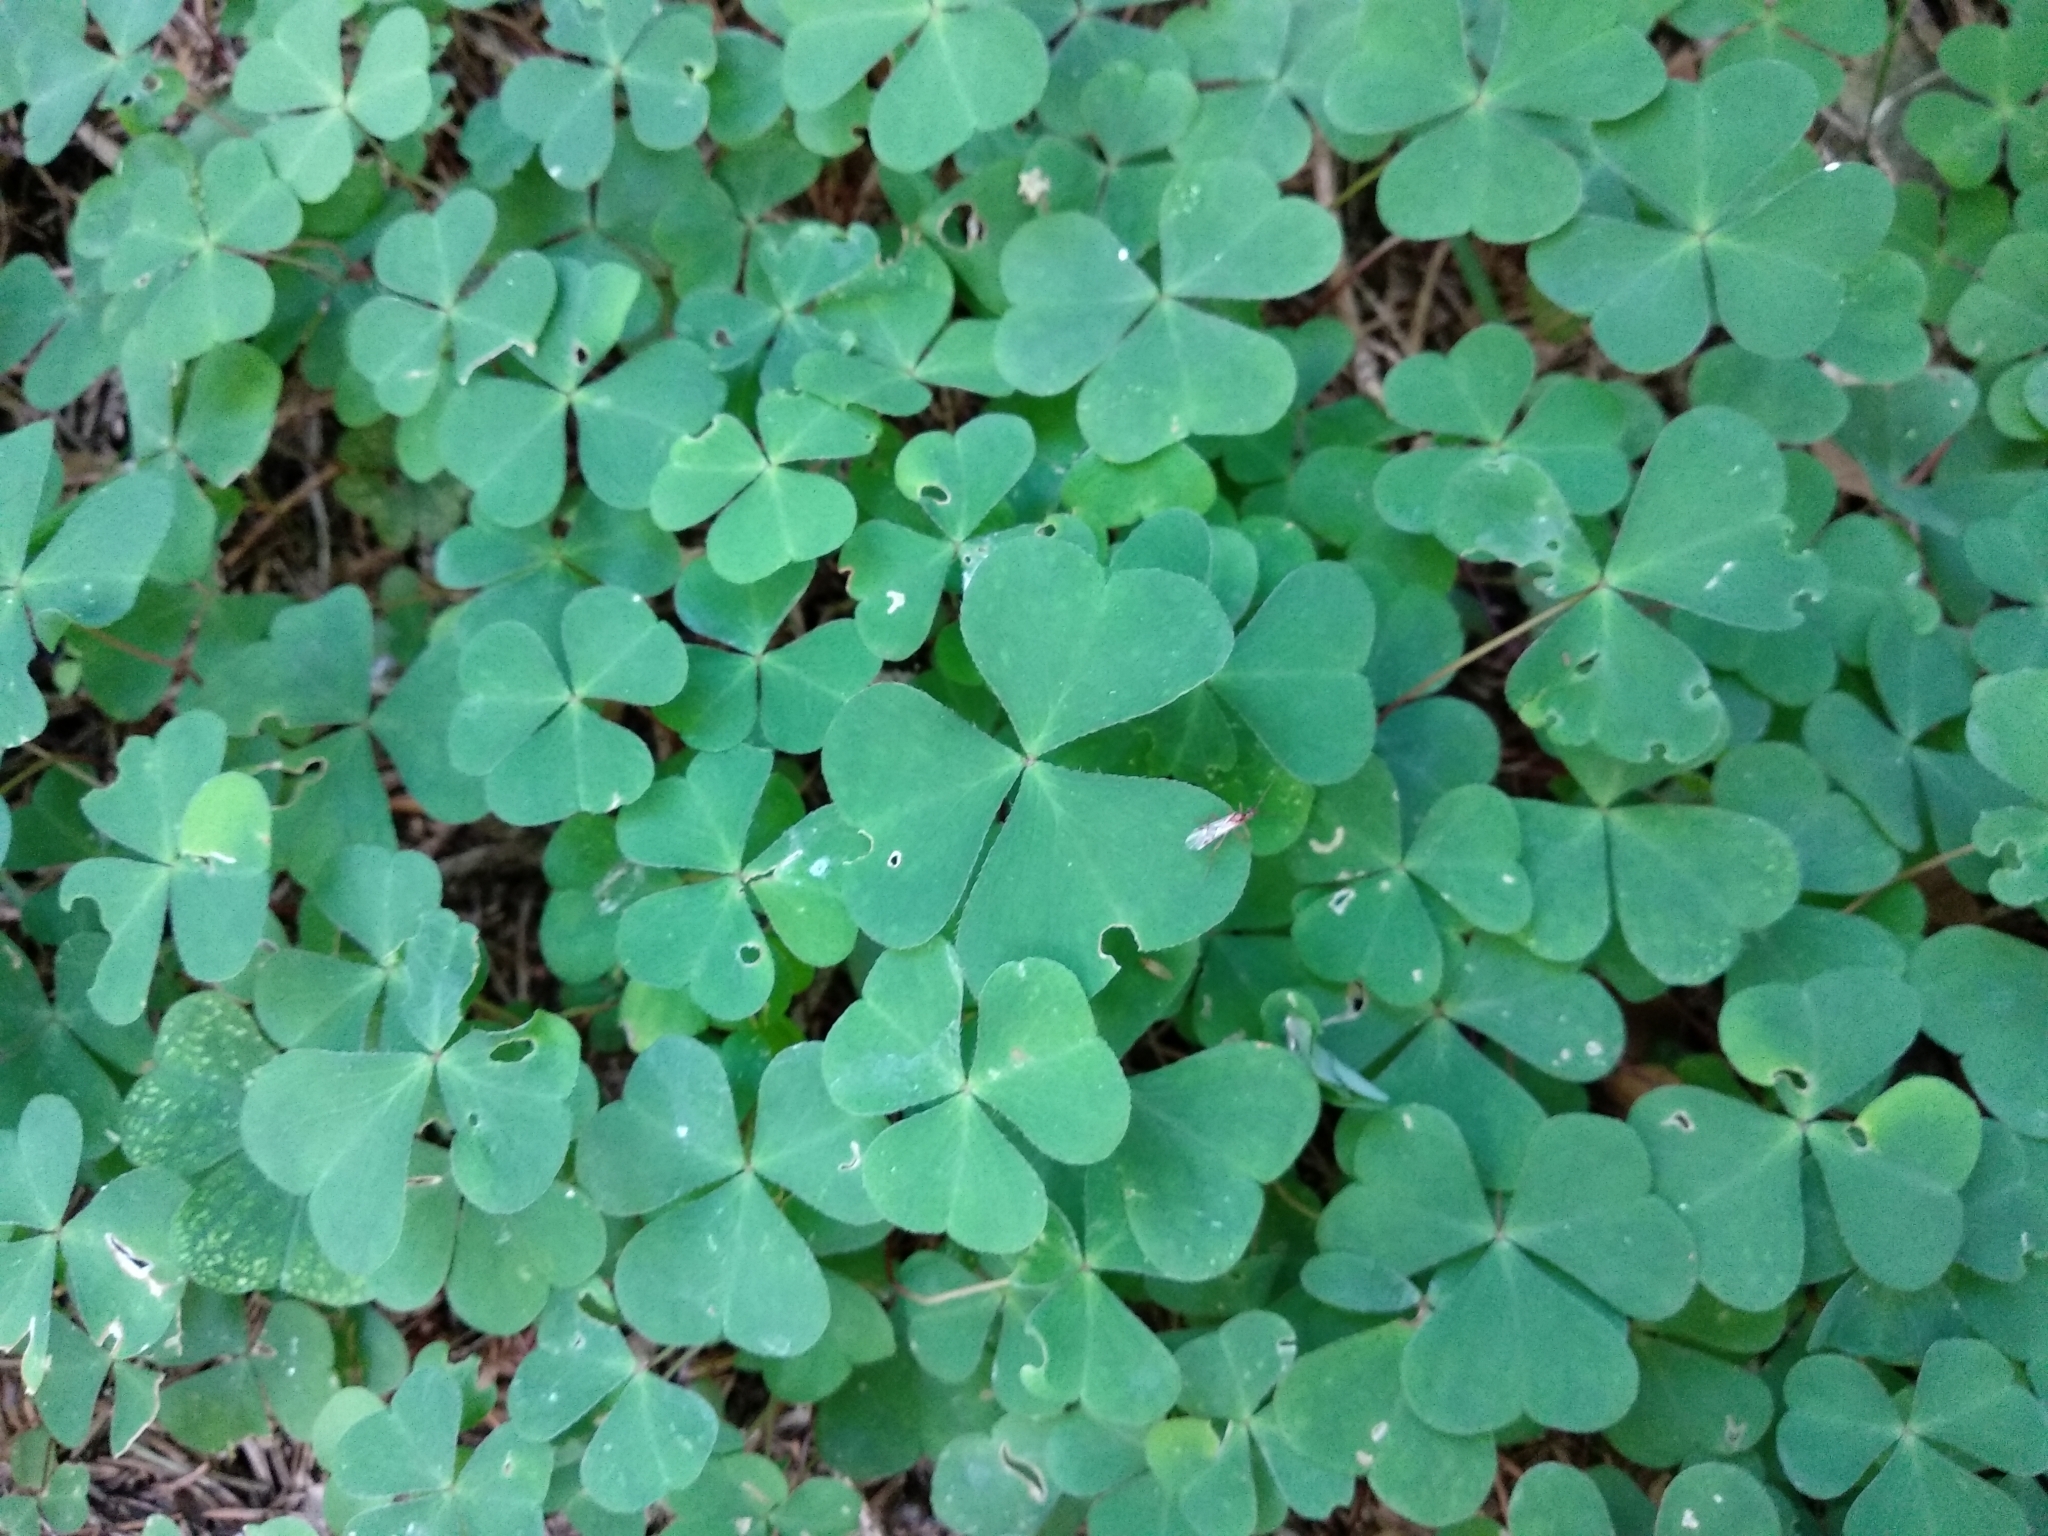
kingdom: Plantae
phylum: Tracheophyta
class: Magnoliopsida
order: Oxalidales
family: Oxalidaceae
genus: Oxalis
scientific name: Oxalis acetosella
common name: Wood-sorrel
